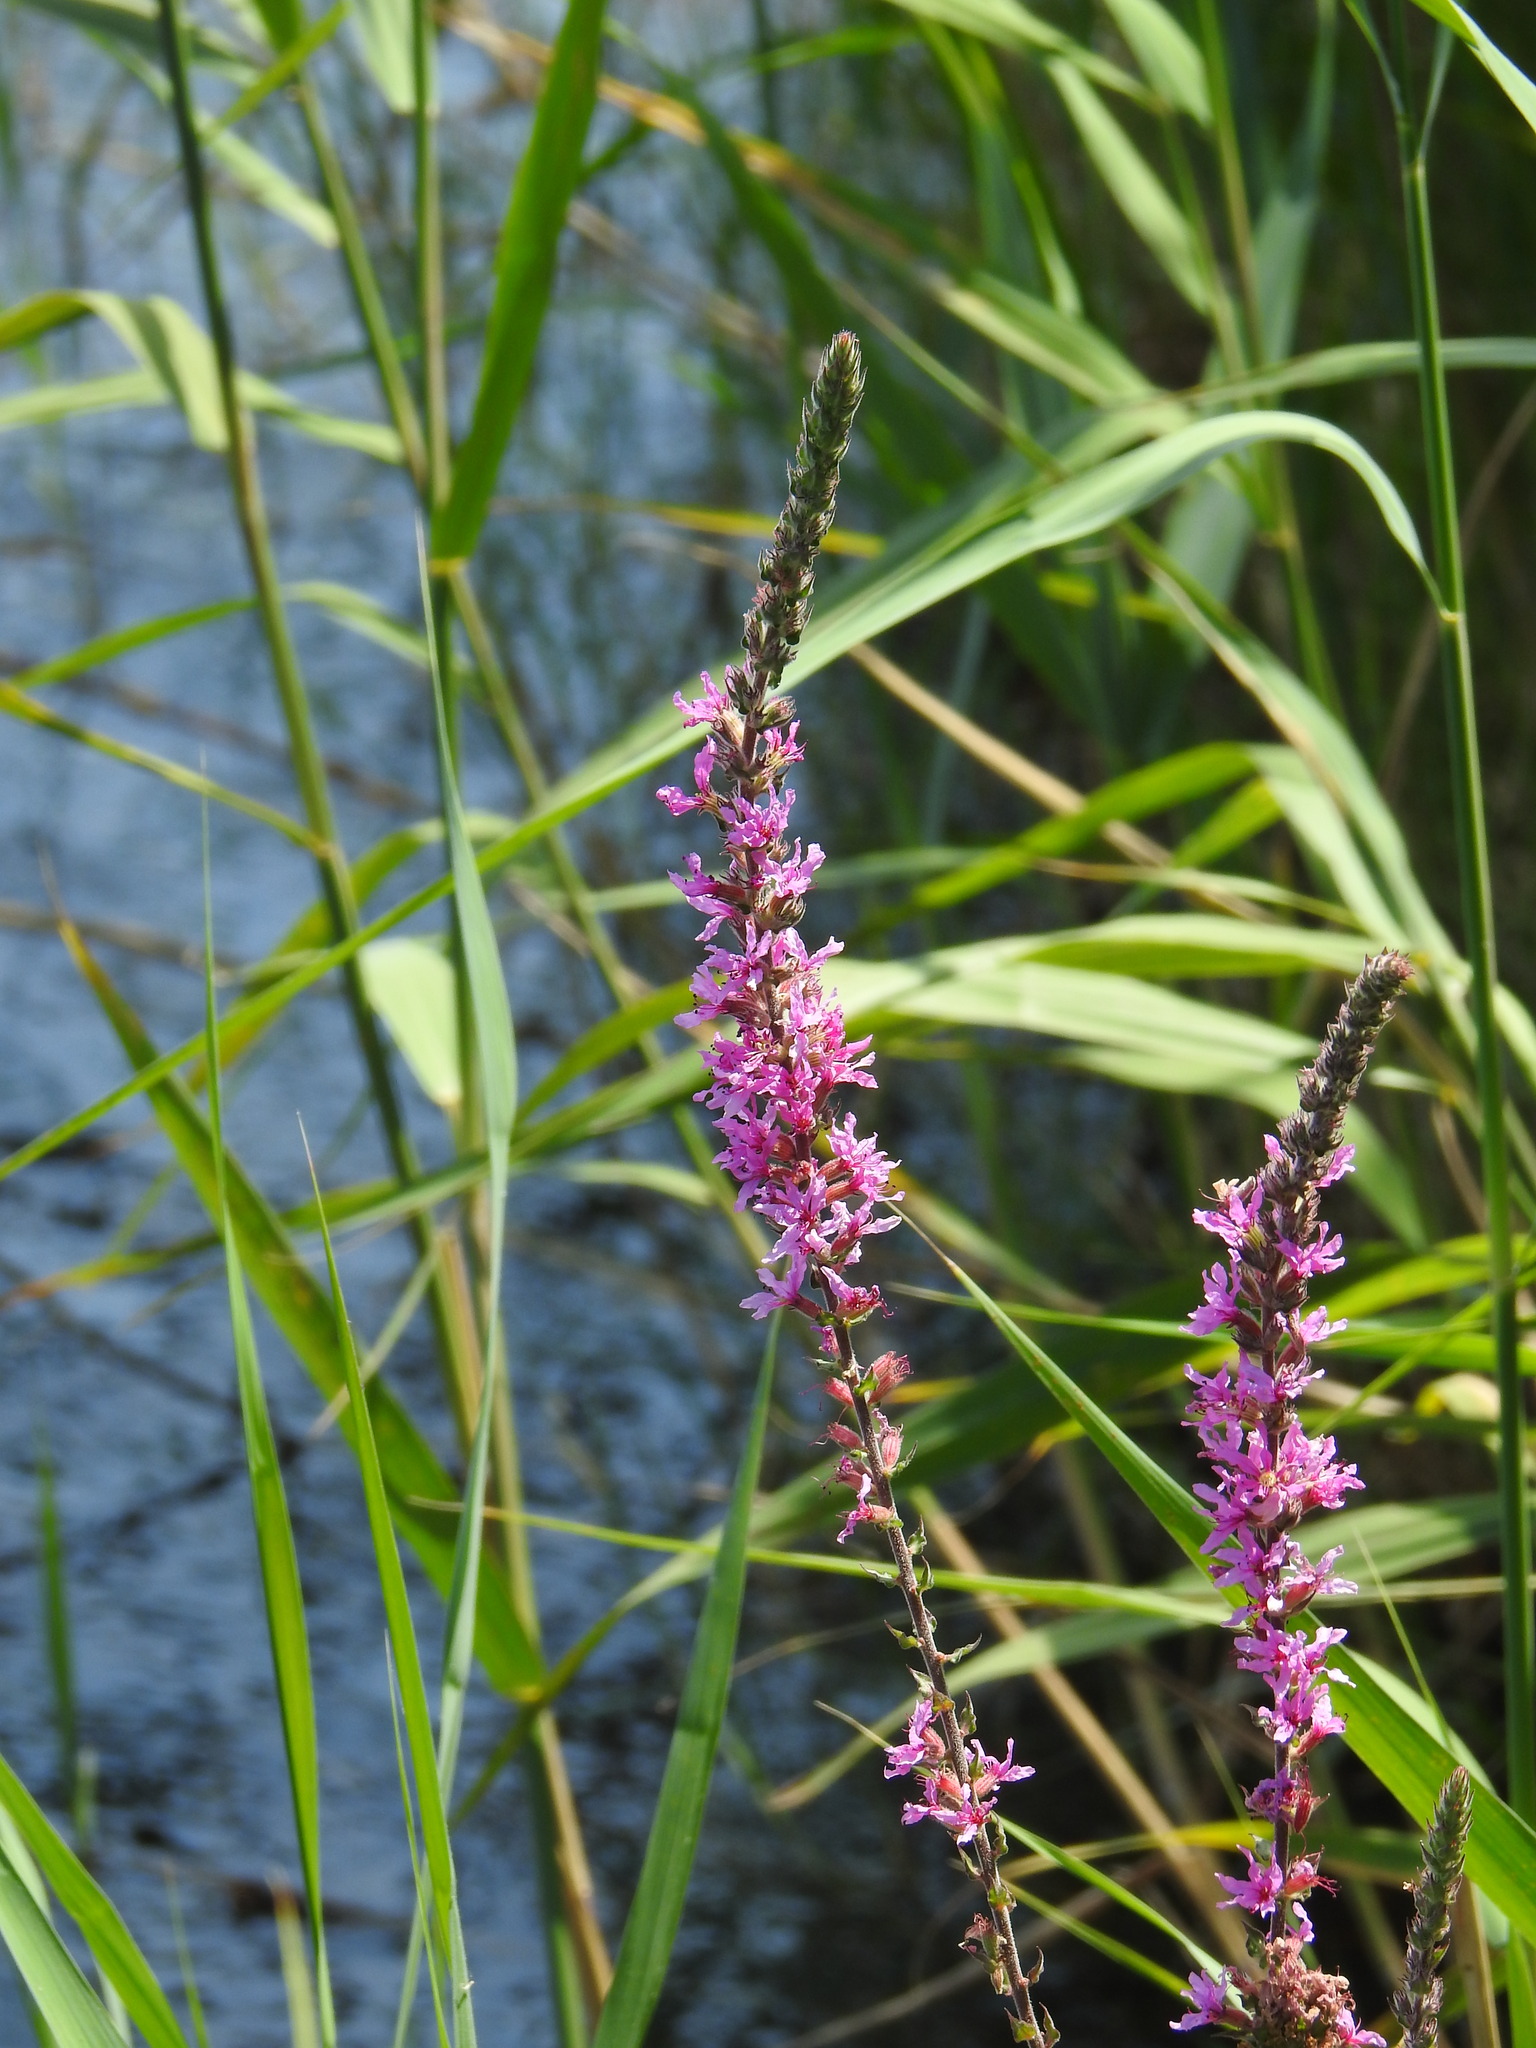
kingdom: Plantae
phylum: Tracheophyta
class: Magnoliopsida
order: Myrtales
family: Lythraceae
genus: Lythrum
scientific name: Lythrum salicaria
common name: Purple loosestrife
